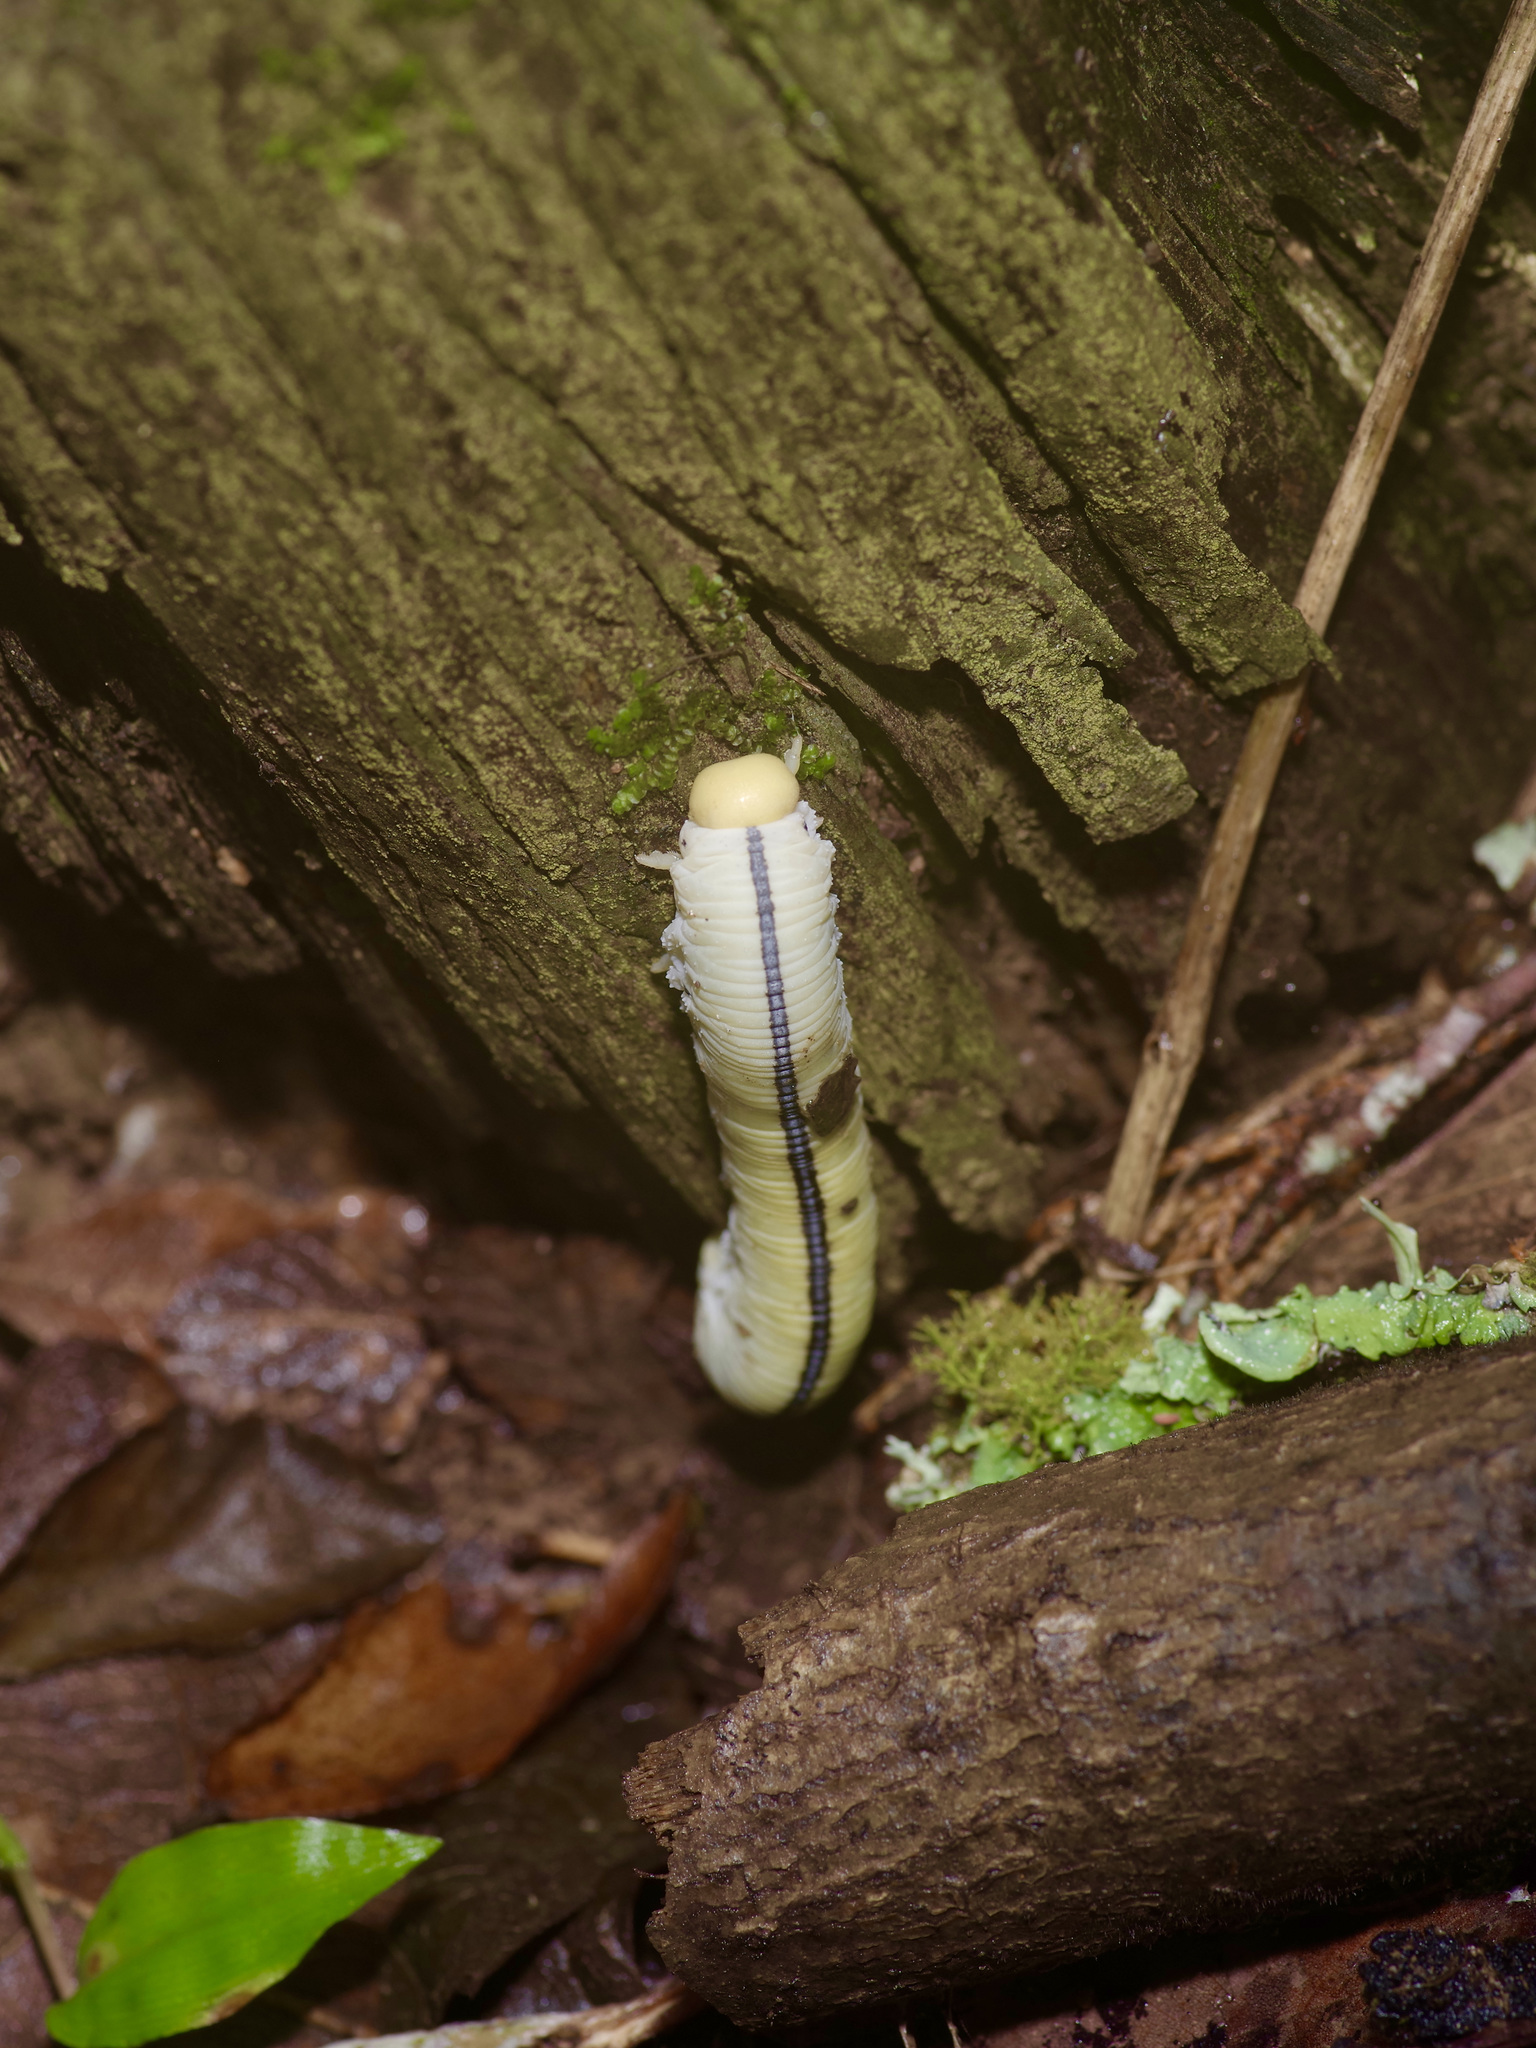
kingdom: Animalia
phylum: Arthropoda
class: Insecta
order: Hymenoptera
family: Cimbicidae
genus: Cimbex
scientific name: Cimbex americana
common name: Elm sawfly
